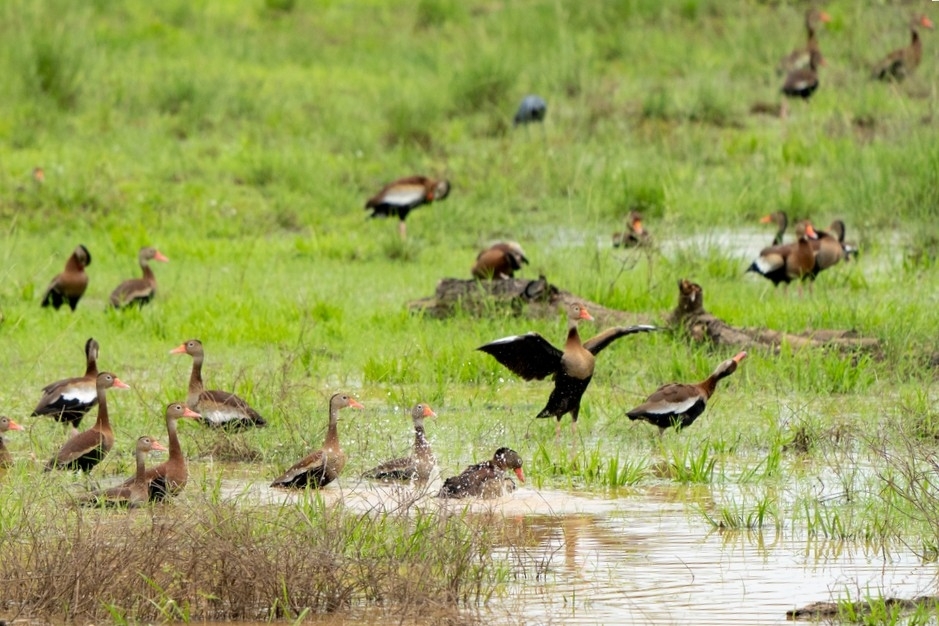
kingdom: Animalia
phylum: Chordata
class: Aves
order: Anseriformes
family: Anatidae
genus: Dendrocygna
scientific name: Dendrocygna autumnalis
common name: Black-bellied whistling duck
